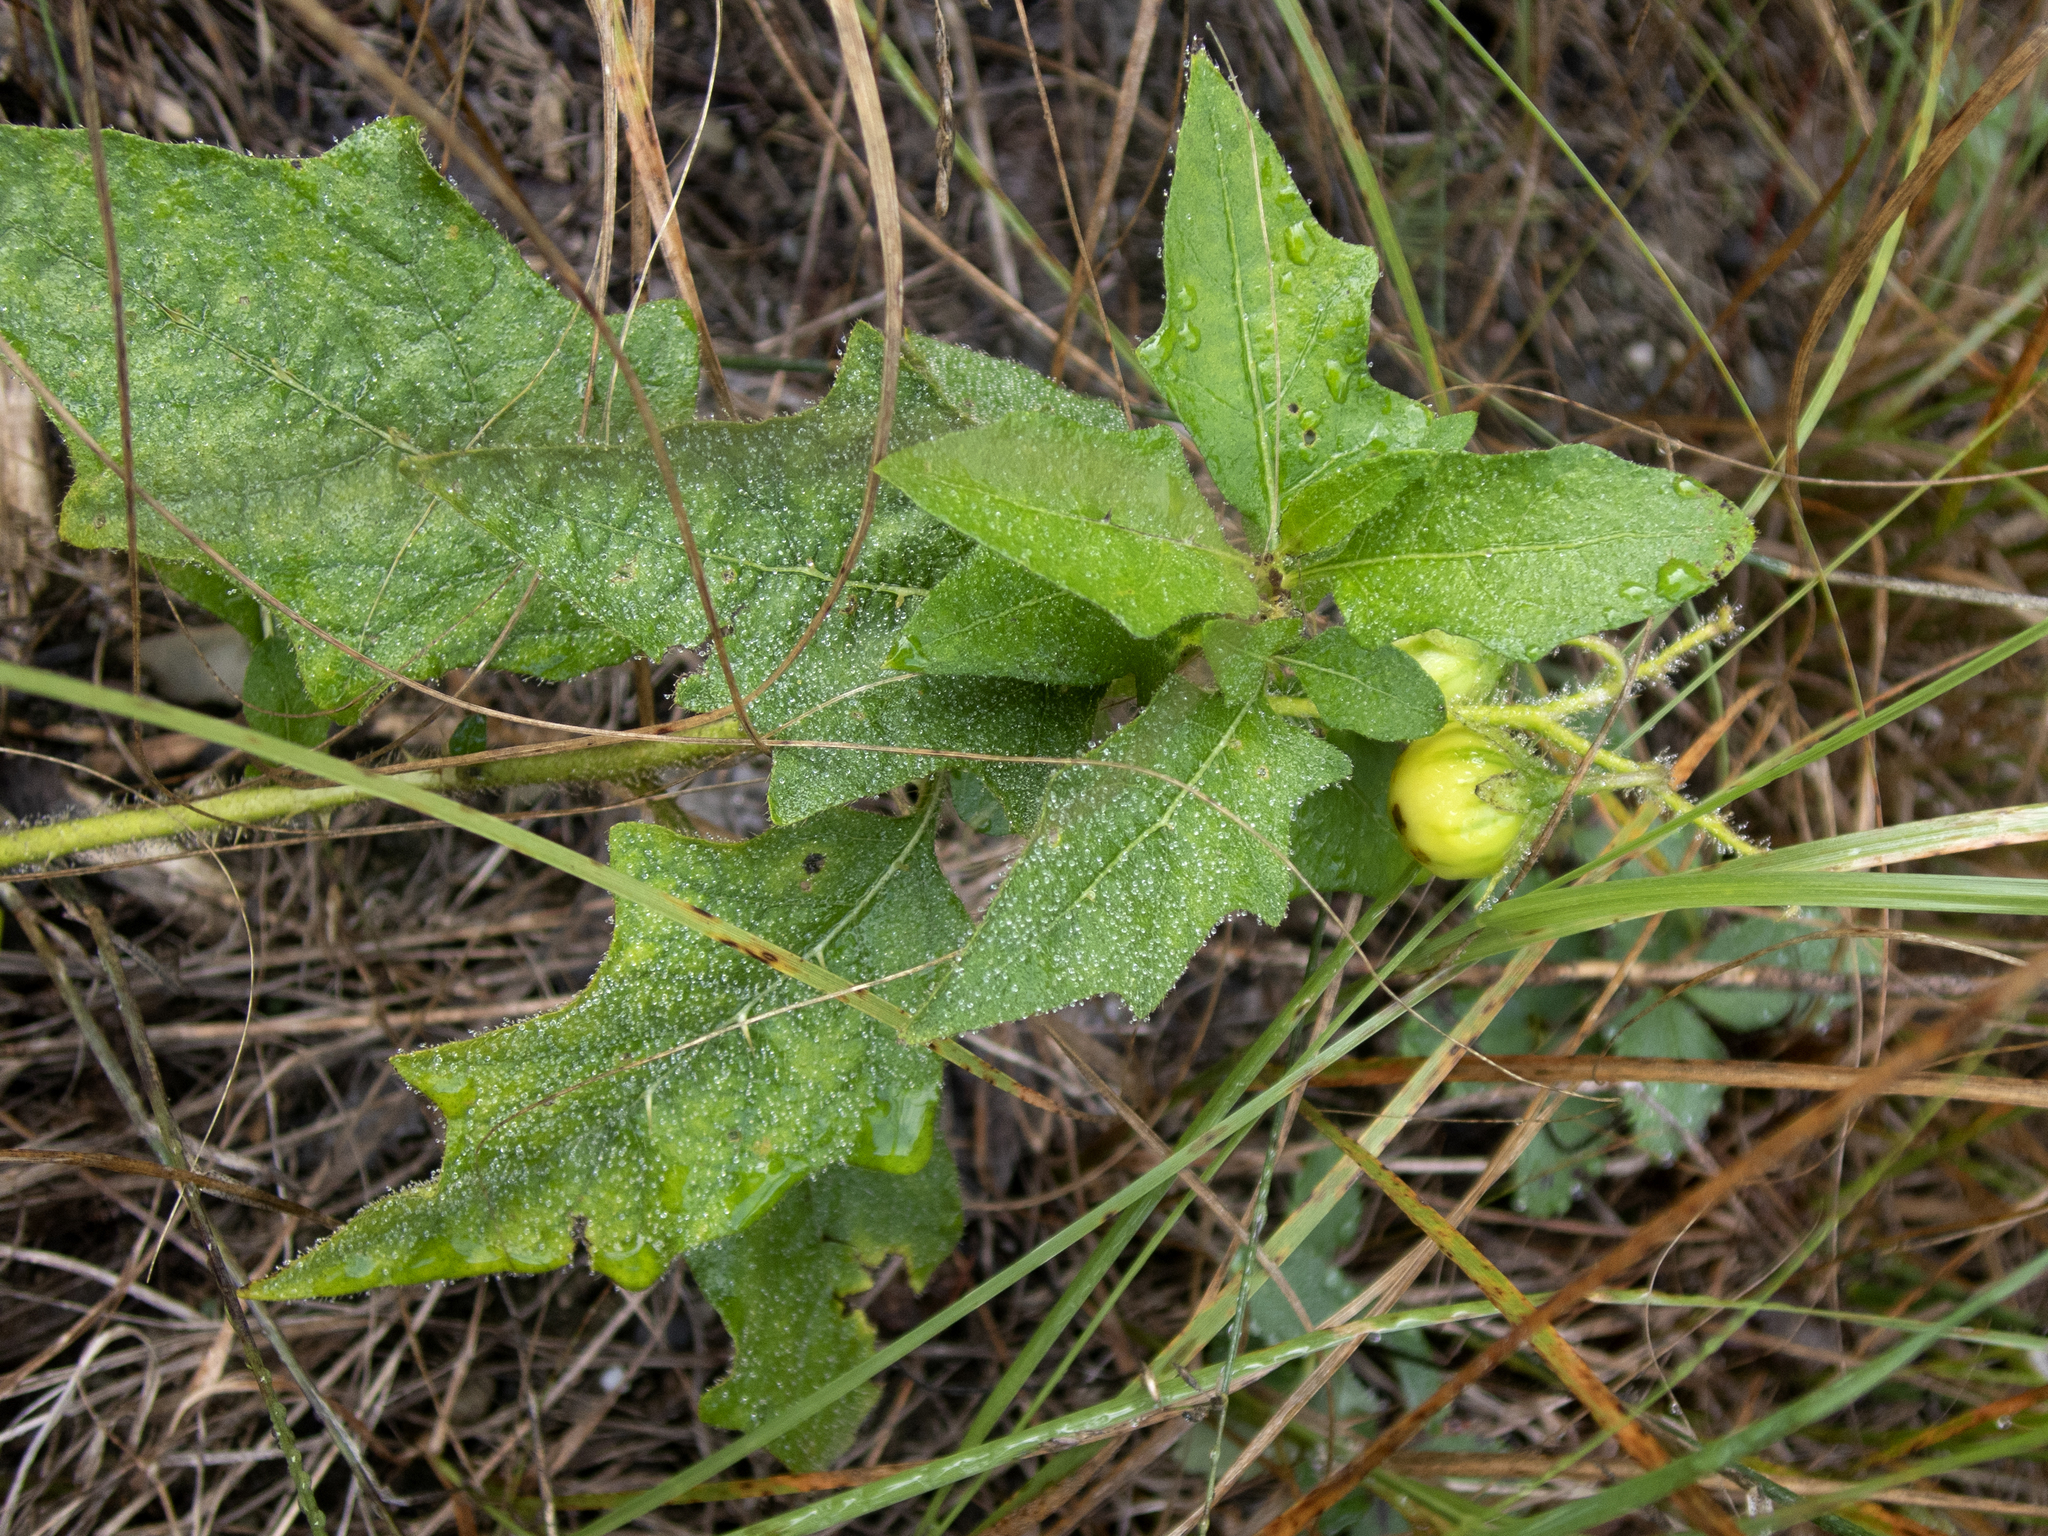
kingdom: Plantae
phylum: Tracheophyta
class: Magnoliopsida
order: Solanales
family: Solanaceae
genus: Solanum
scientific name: Solanum carolinense
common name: Horse-nettle
